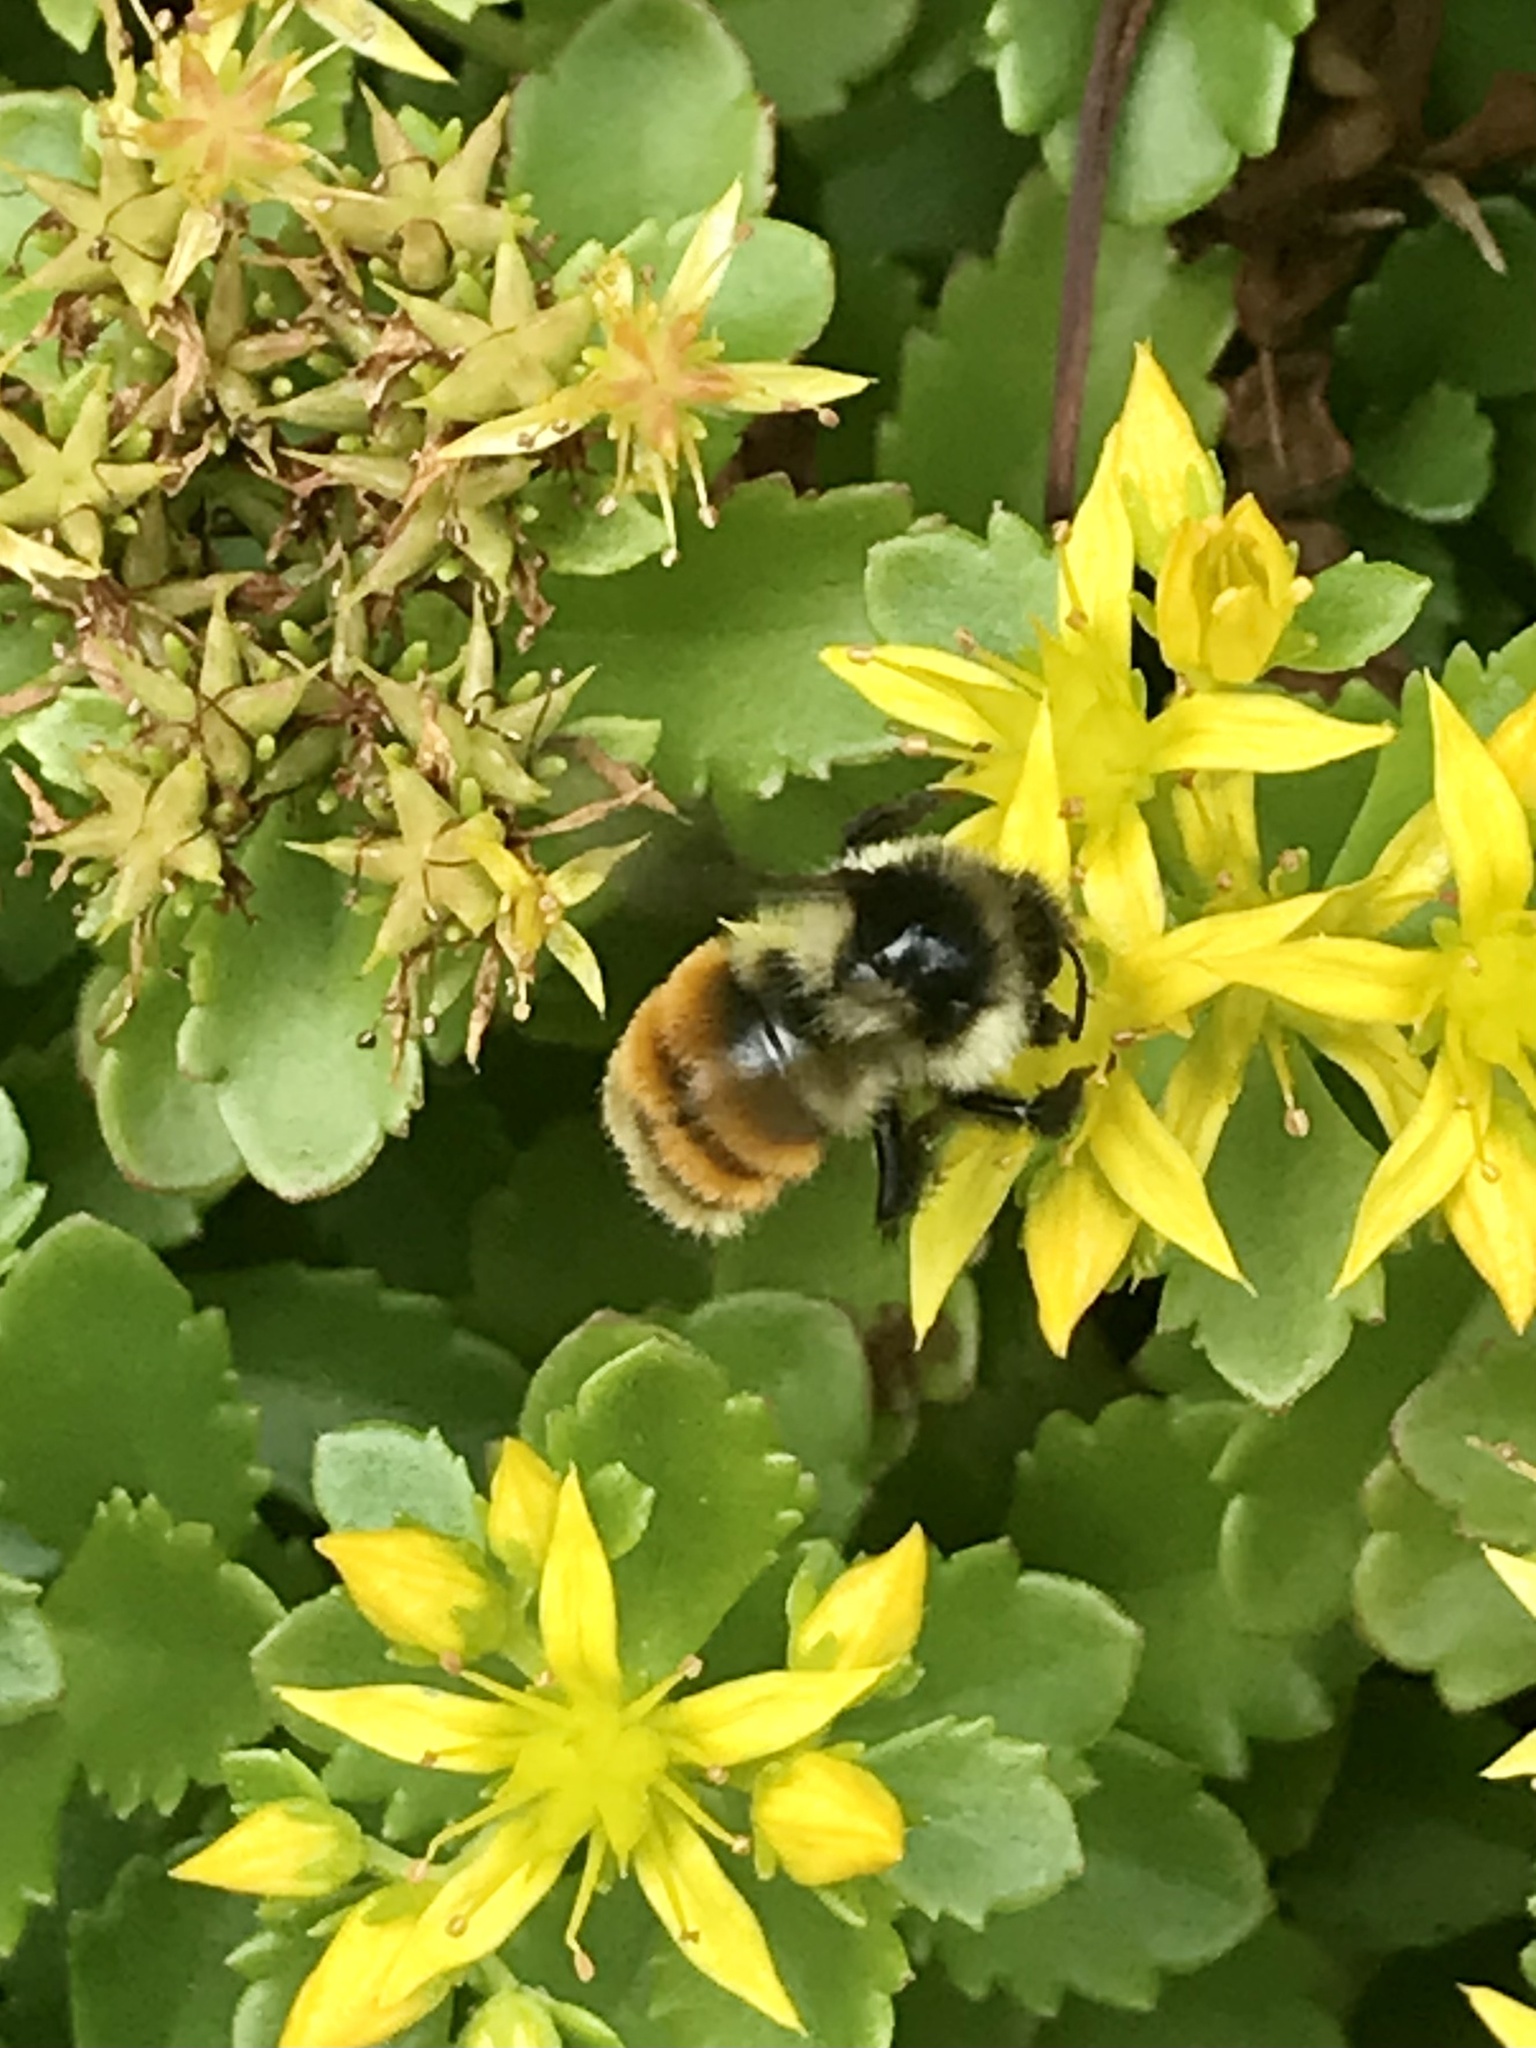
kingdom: Animalia
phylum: Arthropoda
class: Insecta
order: Hymenoptera
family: Apidae
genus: Bombus
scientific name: Bombus ternarius
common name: Tri-colored bumble bee
